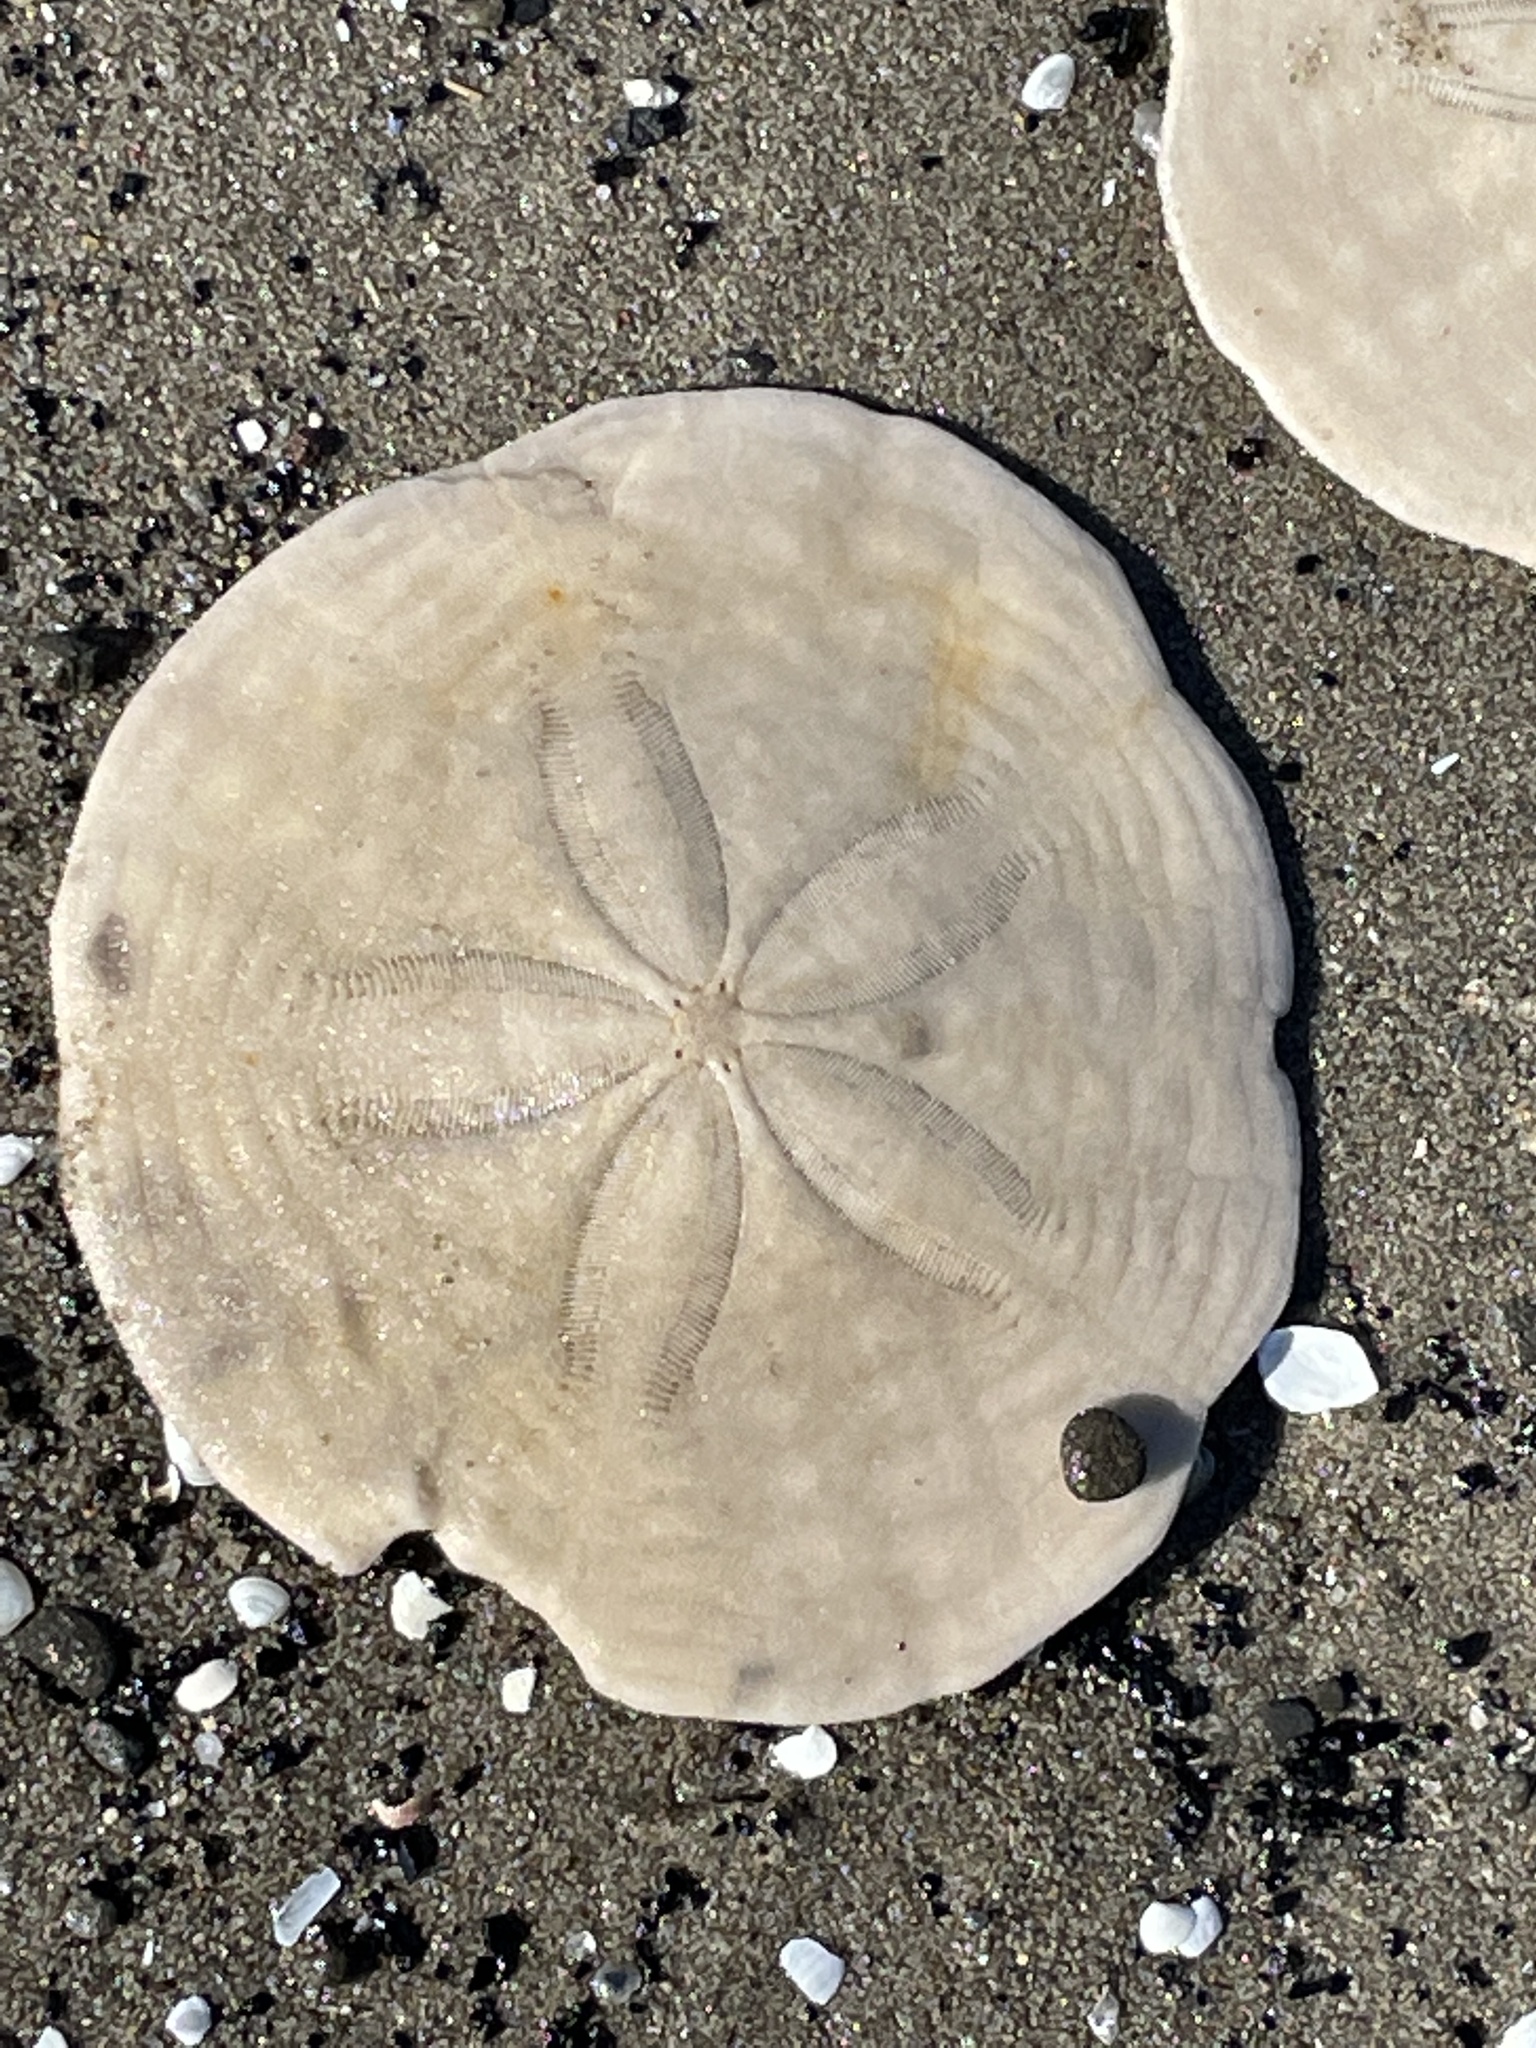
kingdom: Animalia
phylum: Echinodermata
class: Echinoidea
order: Echinolampadacea
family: Echinarachniidae
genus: Echinarachnius
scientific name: Echinarachnius parma
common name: Common sand dollar
